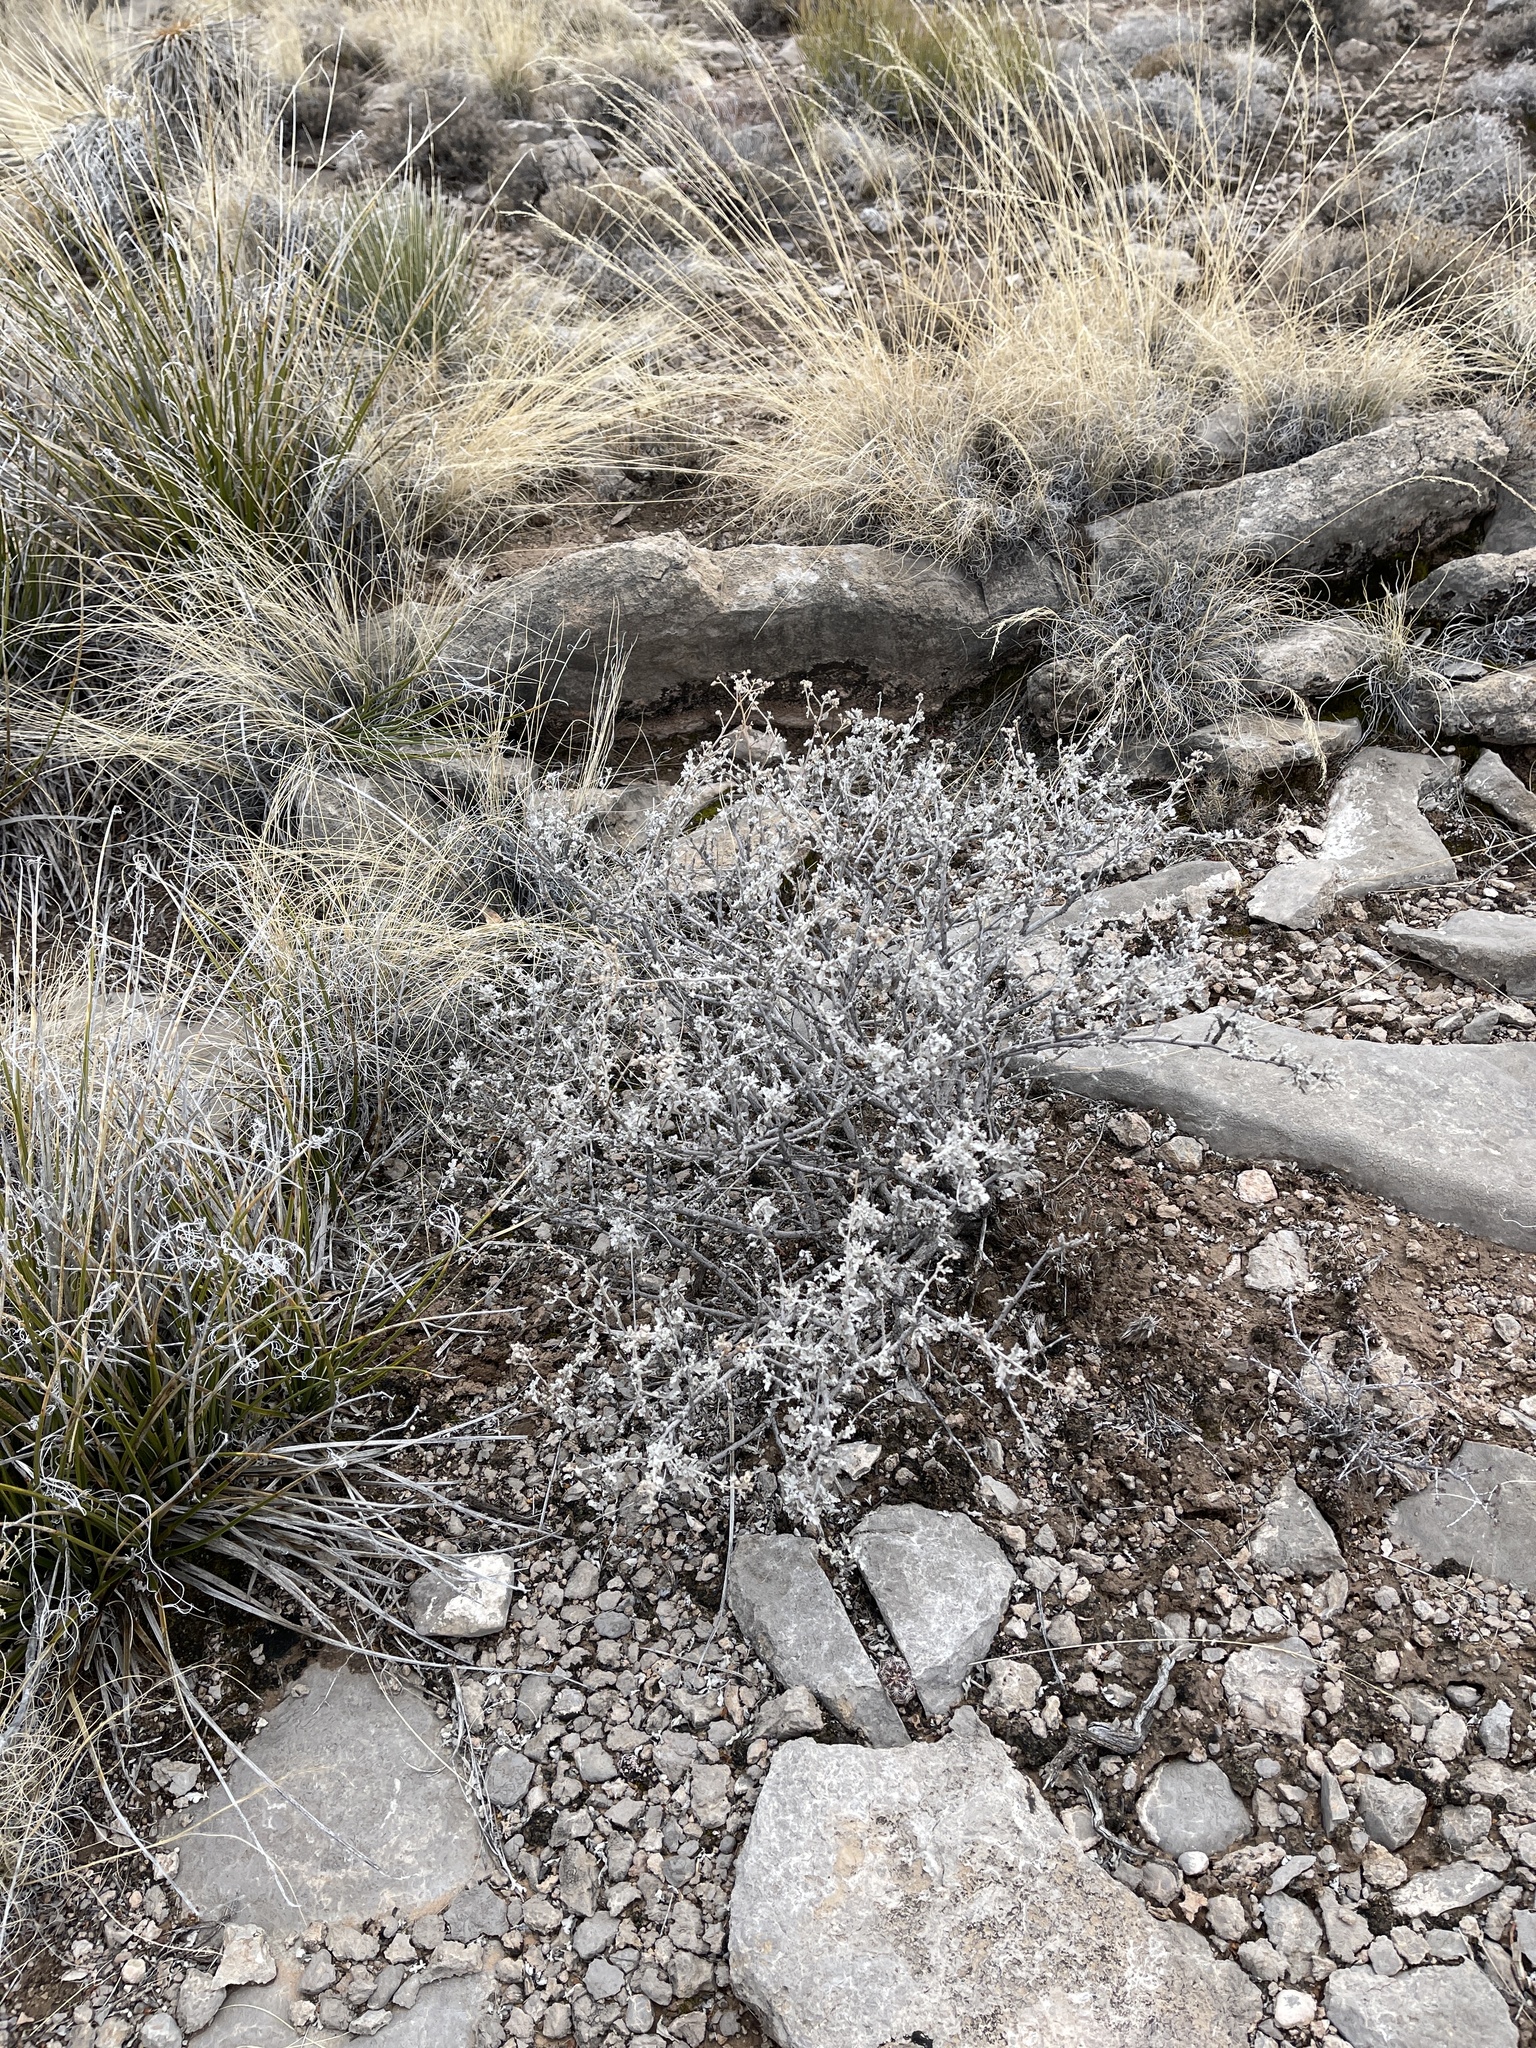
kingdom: Plantae
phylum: Tracheophyta
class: Magnoliopsida
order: Asterales
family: Asteraceae
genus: Parthenium
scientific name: Parthenium incanum
